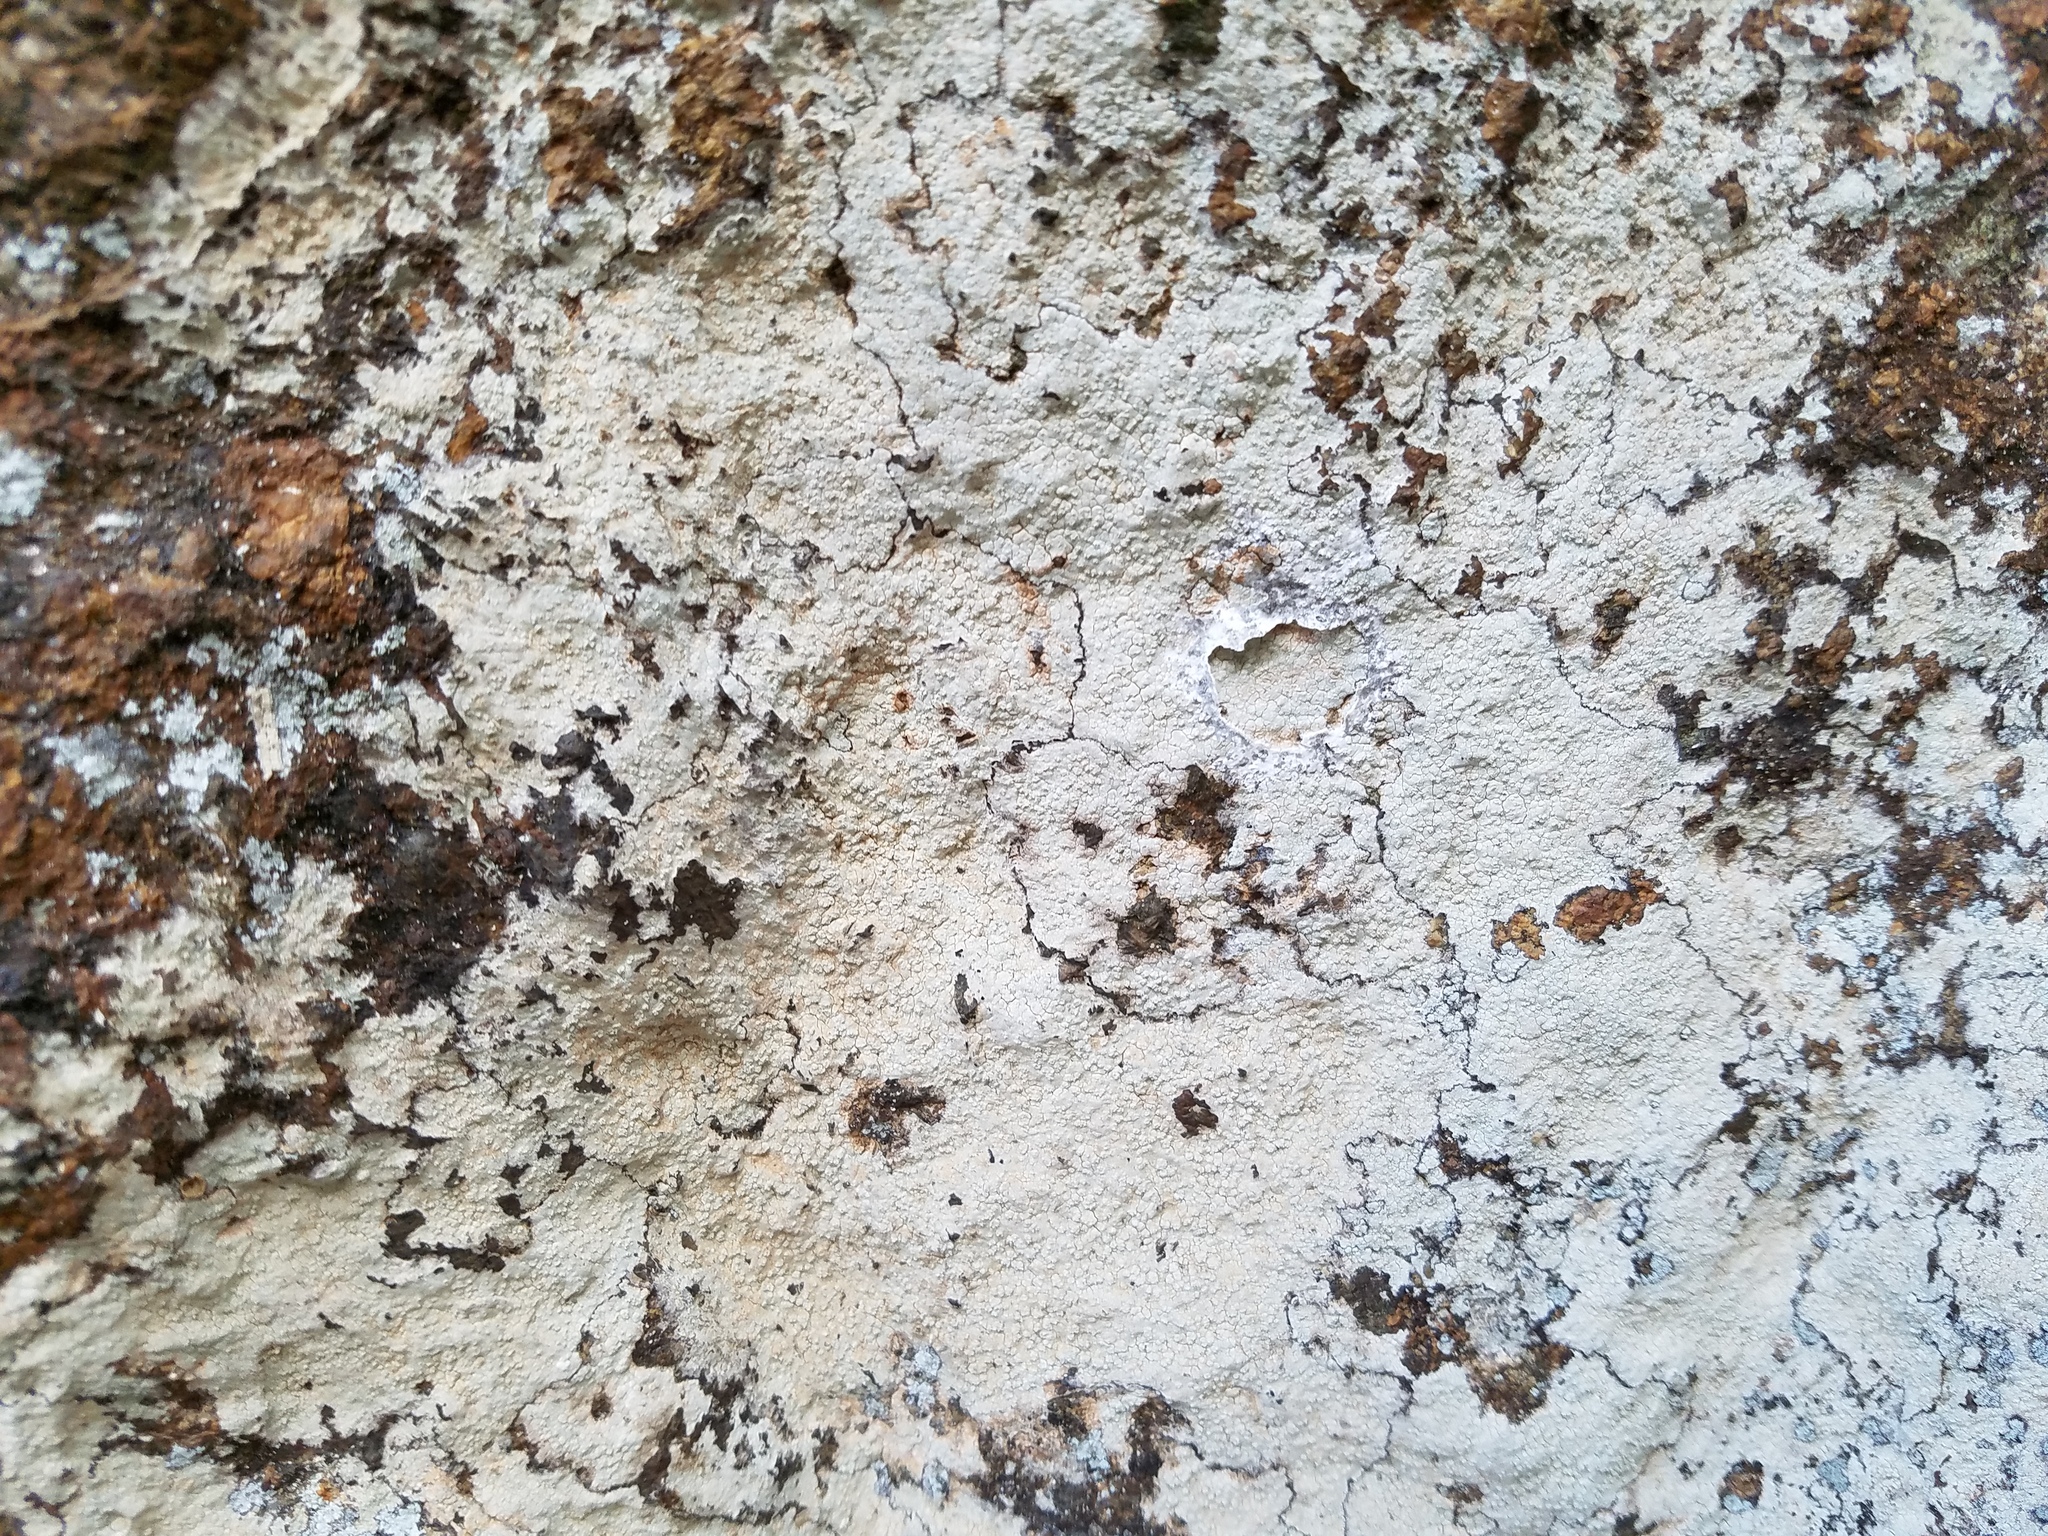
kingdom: Fungi
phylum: Ascomycota
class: Lecanoromycetes
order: Ostropales
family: Phlyctidaceae
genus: Phlyctis
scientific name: Phlyctis petraea
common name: Eggshell rock blaze
